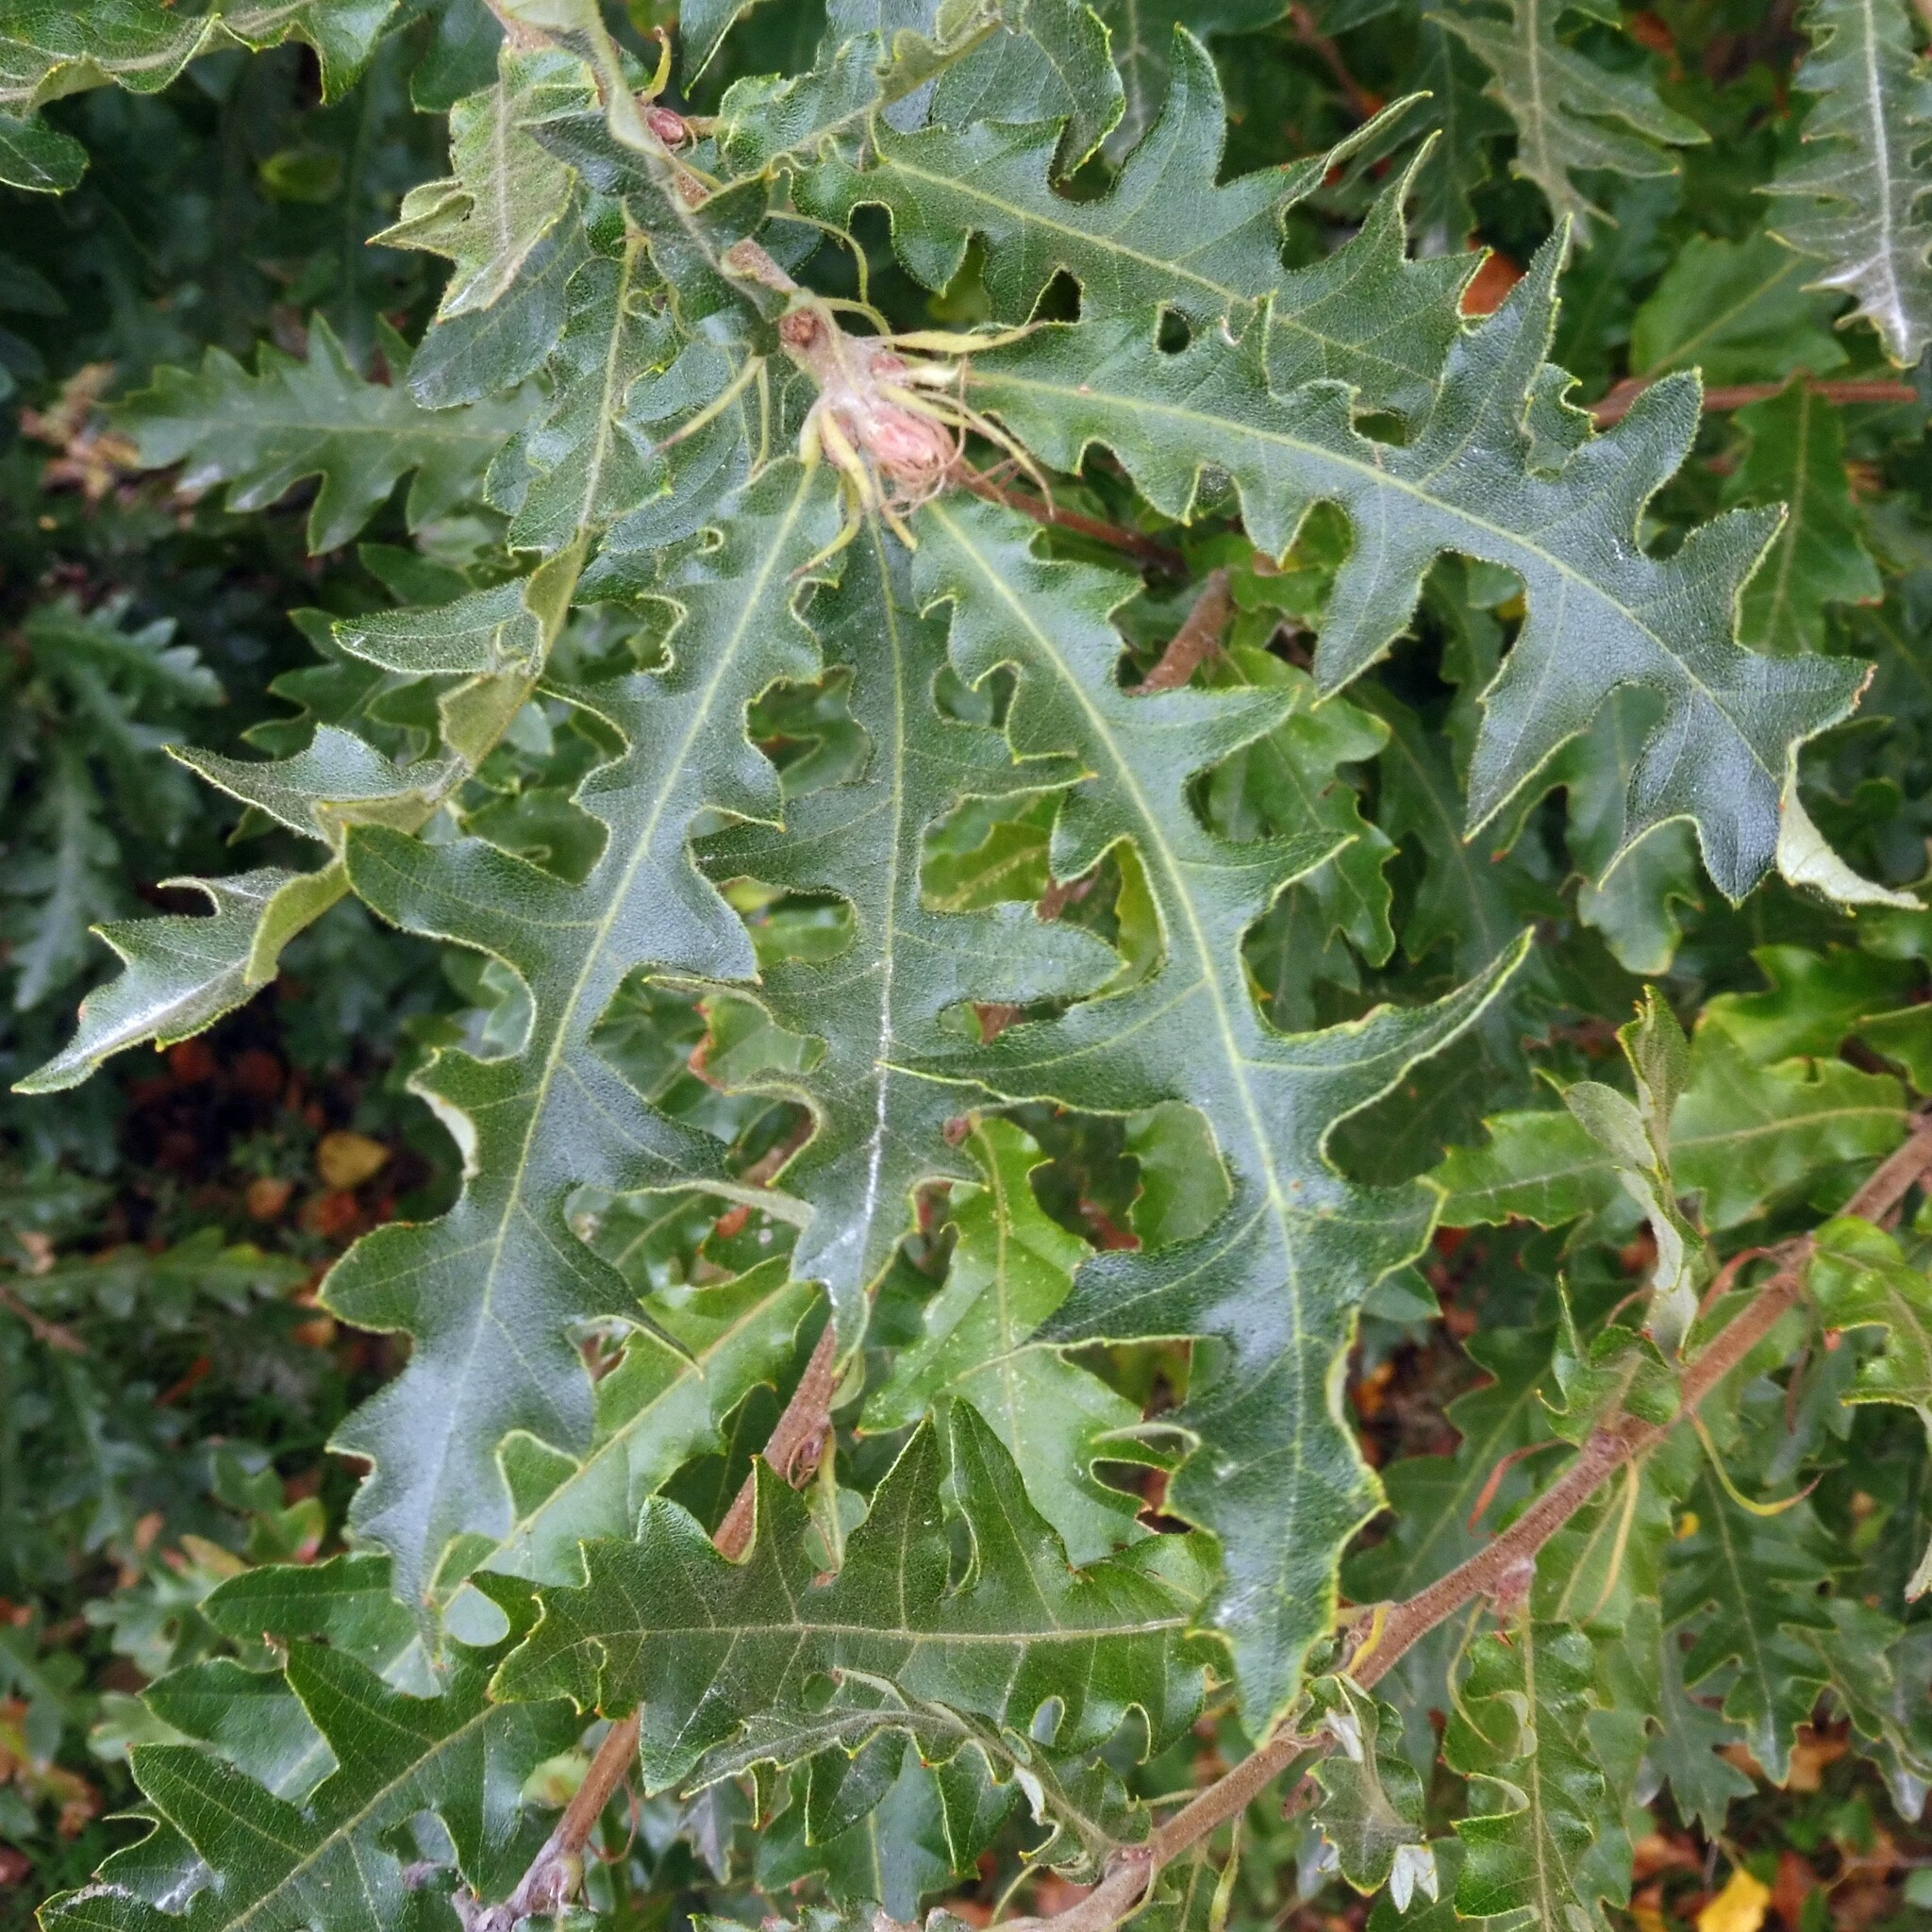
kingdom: Plantae
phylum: Tracheophyta
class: Magnoliopsida
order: Fagales
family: Fagaceae
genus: Quercus
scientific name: Quercus cerris
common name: Turkey oak
